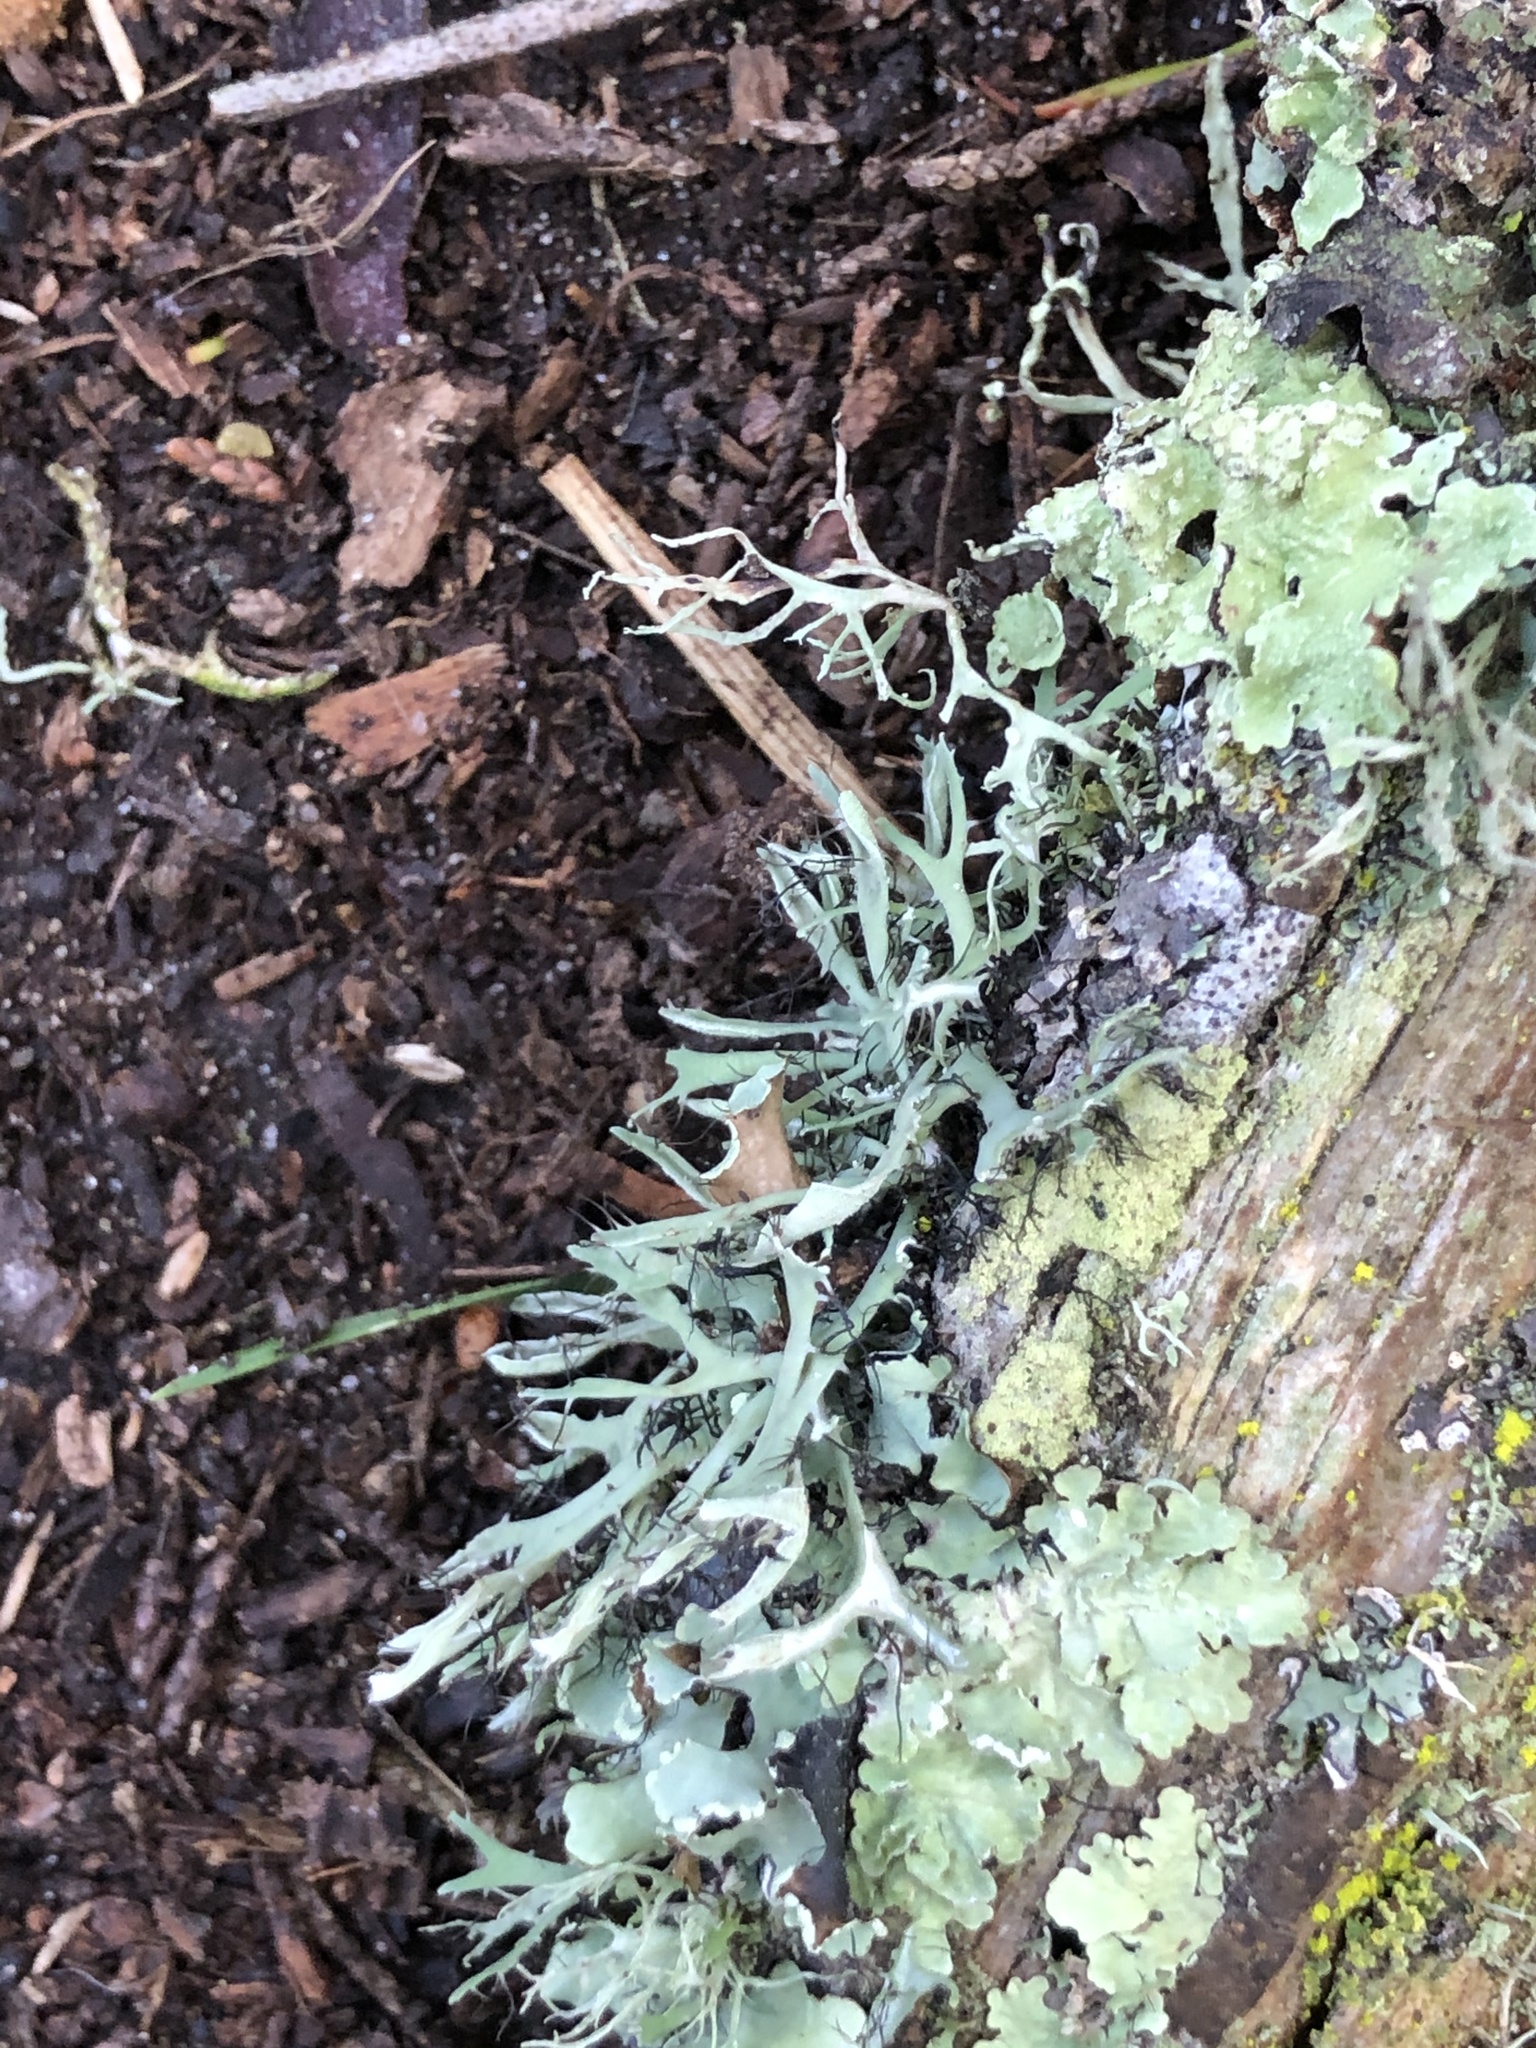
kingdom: Fungi
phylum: Ascomycota
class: Lecanoromycetes
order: Caliciales
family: Physciaceae
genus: Leucodermia
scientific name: Leucodermia leucomelos
